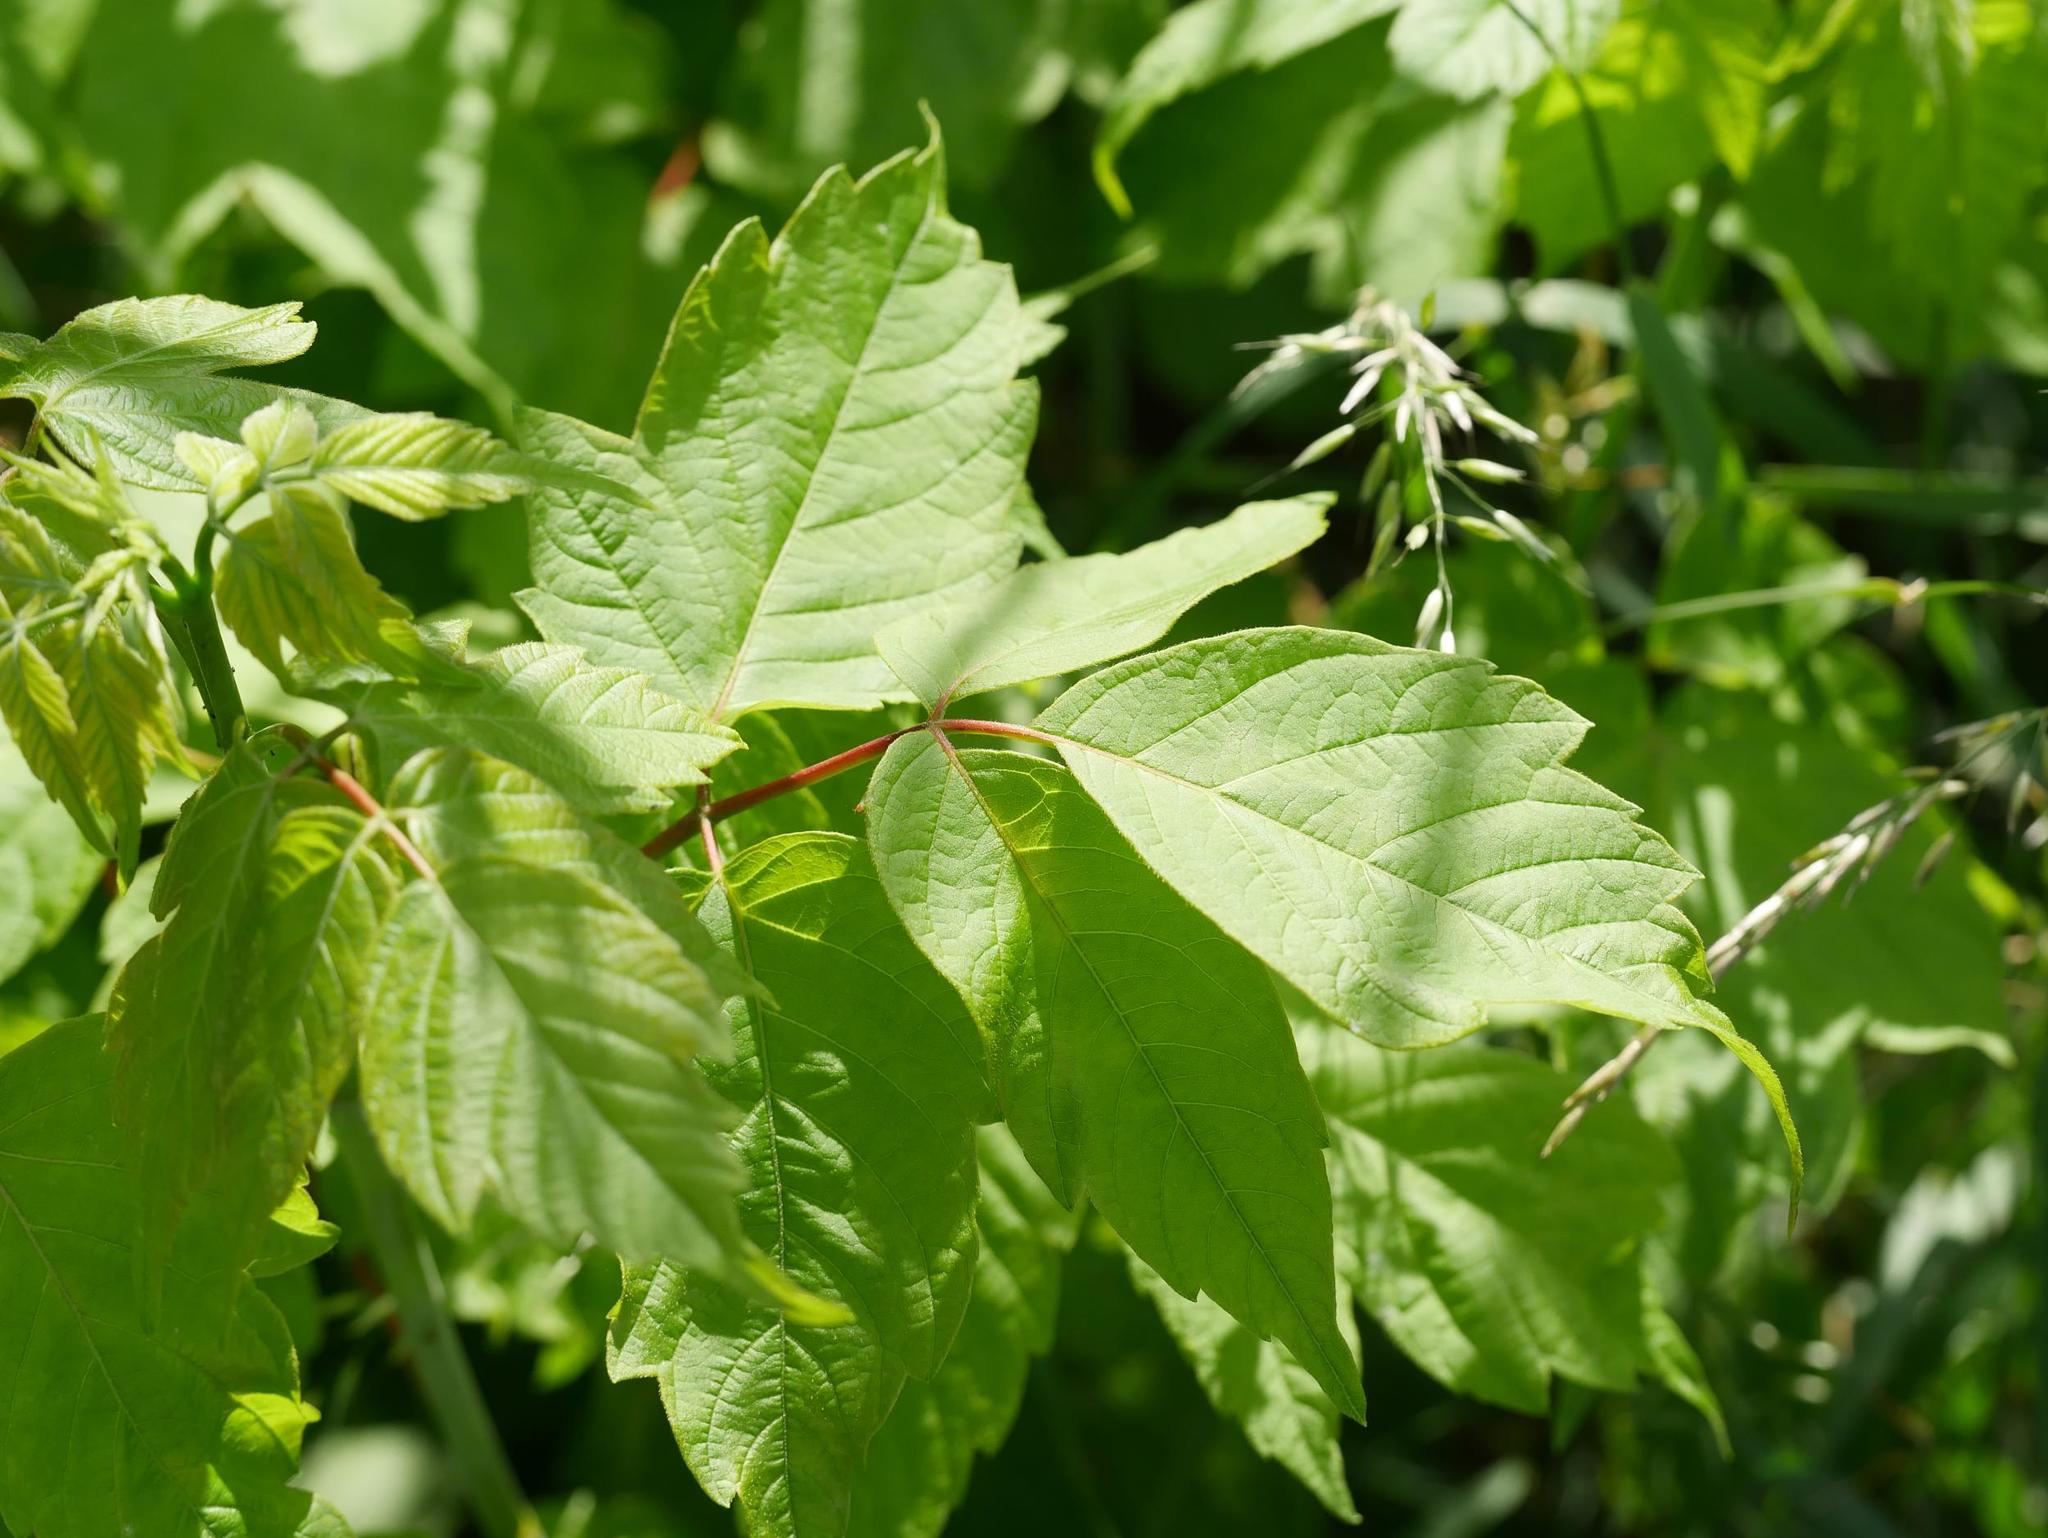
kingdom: Plantae
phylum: Tracheophyta
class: Magnoliopsida
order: Sapindales
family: Sapindaceae
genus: Acer
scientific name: Acer negundo
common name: Ashleaf maple
